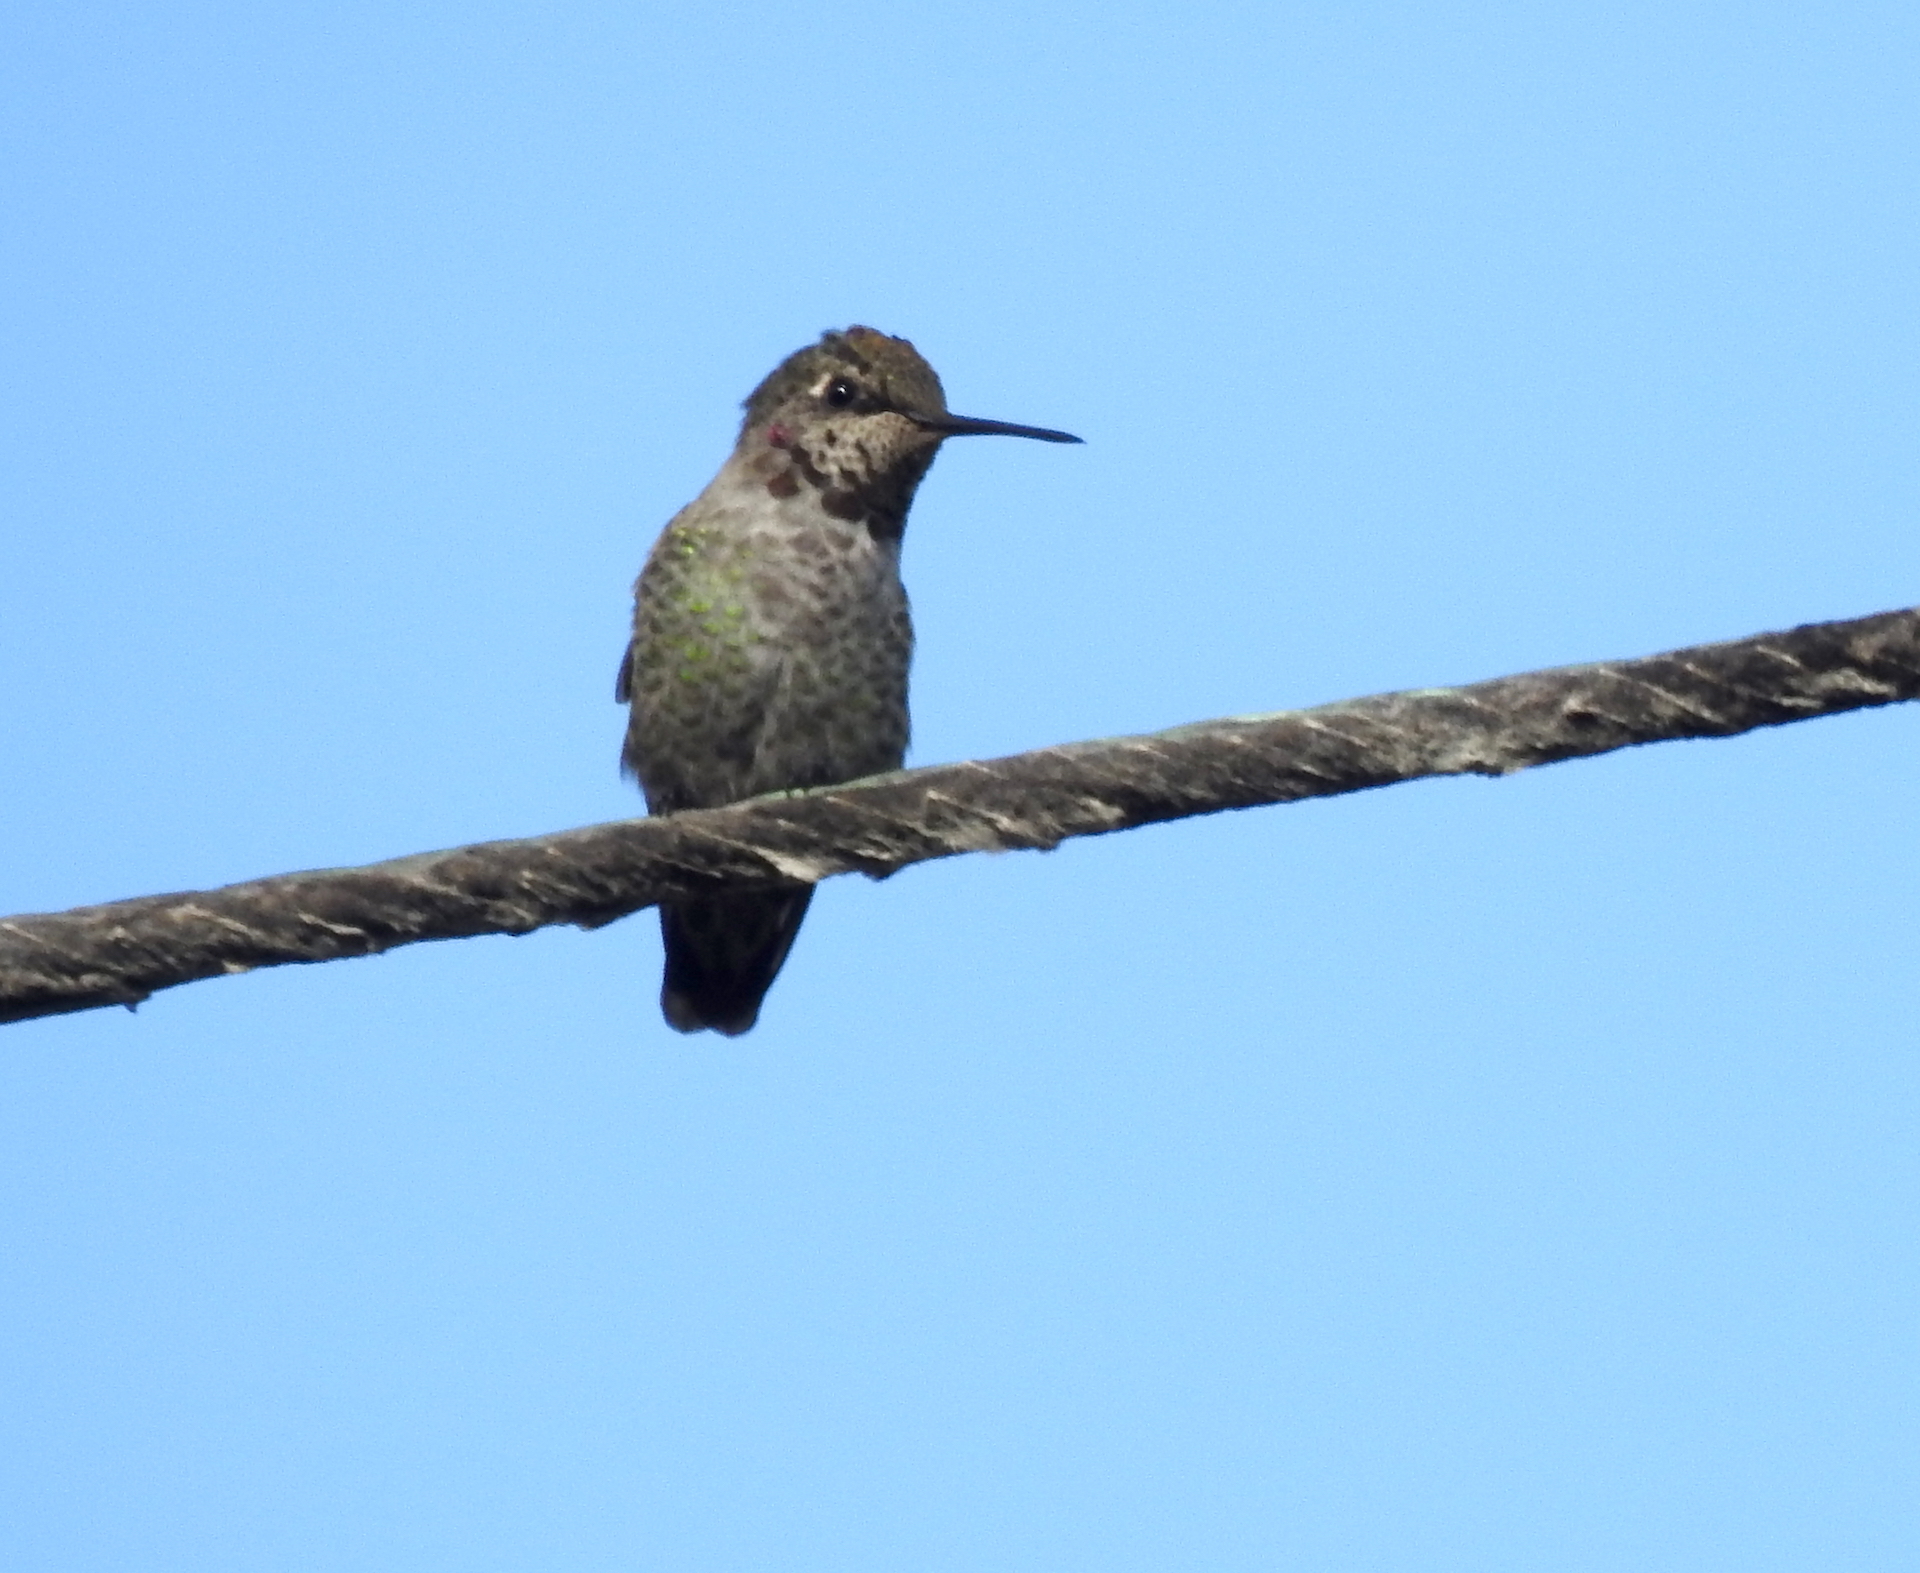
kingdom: Animalia
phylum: Chordata
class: Aves
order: Apodiformes
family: Trochilidae
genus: Calypte
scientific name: Calypte anna
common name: Anna's hummingbird
